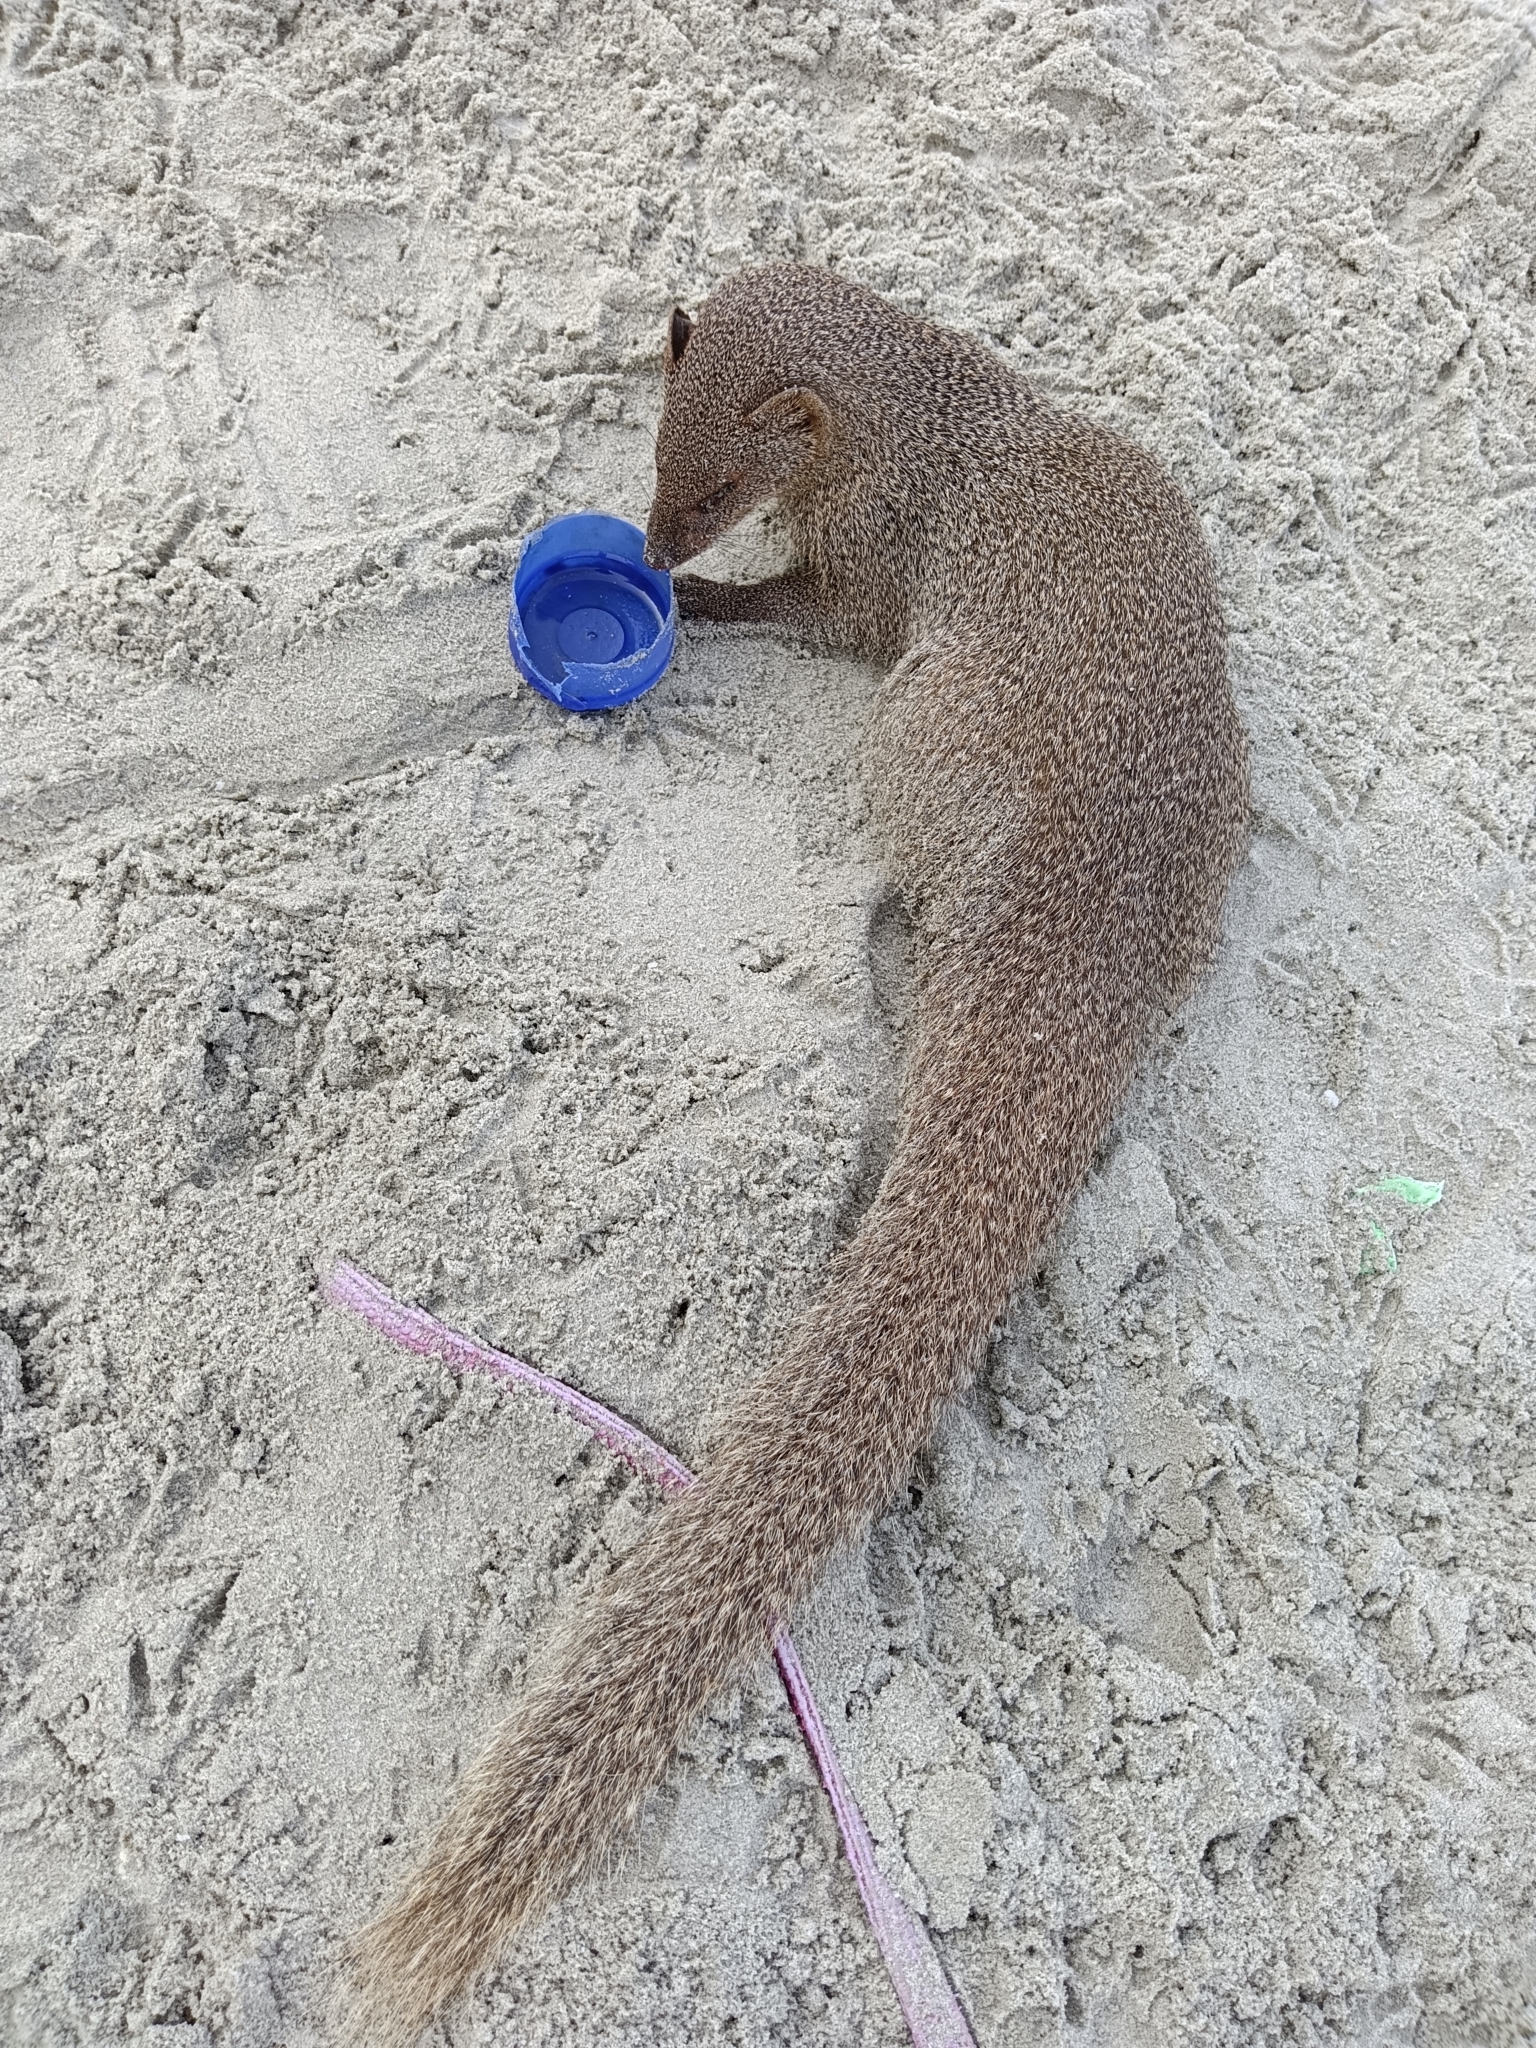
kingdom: Animalia
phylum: Chordata
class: Mammalia
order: Carnivora
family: Herpestidae
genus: Herpestes
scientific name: Herpestes edwardsi
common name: Indian gray mongoose
